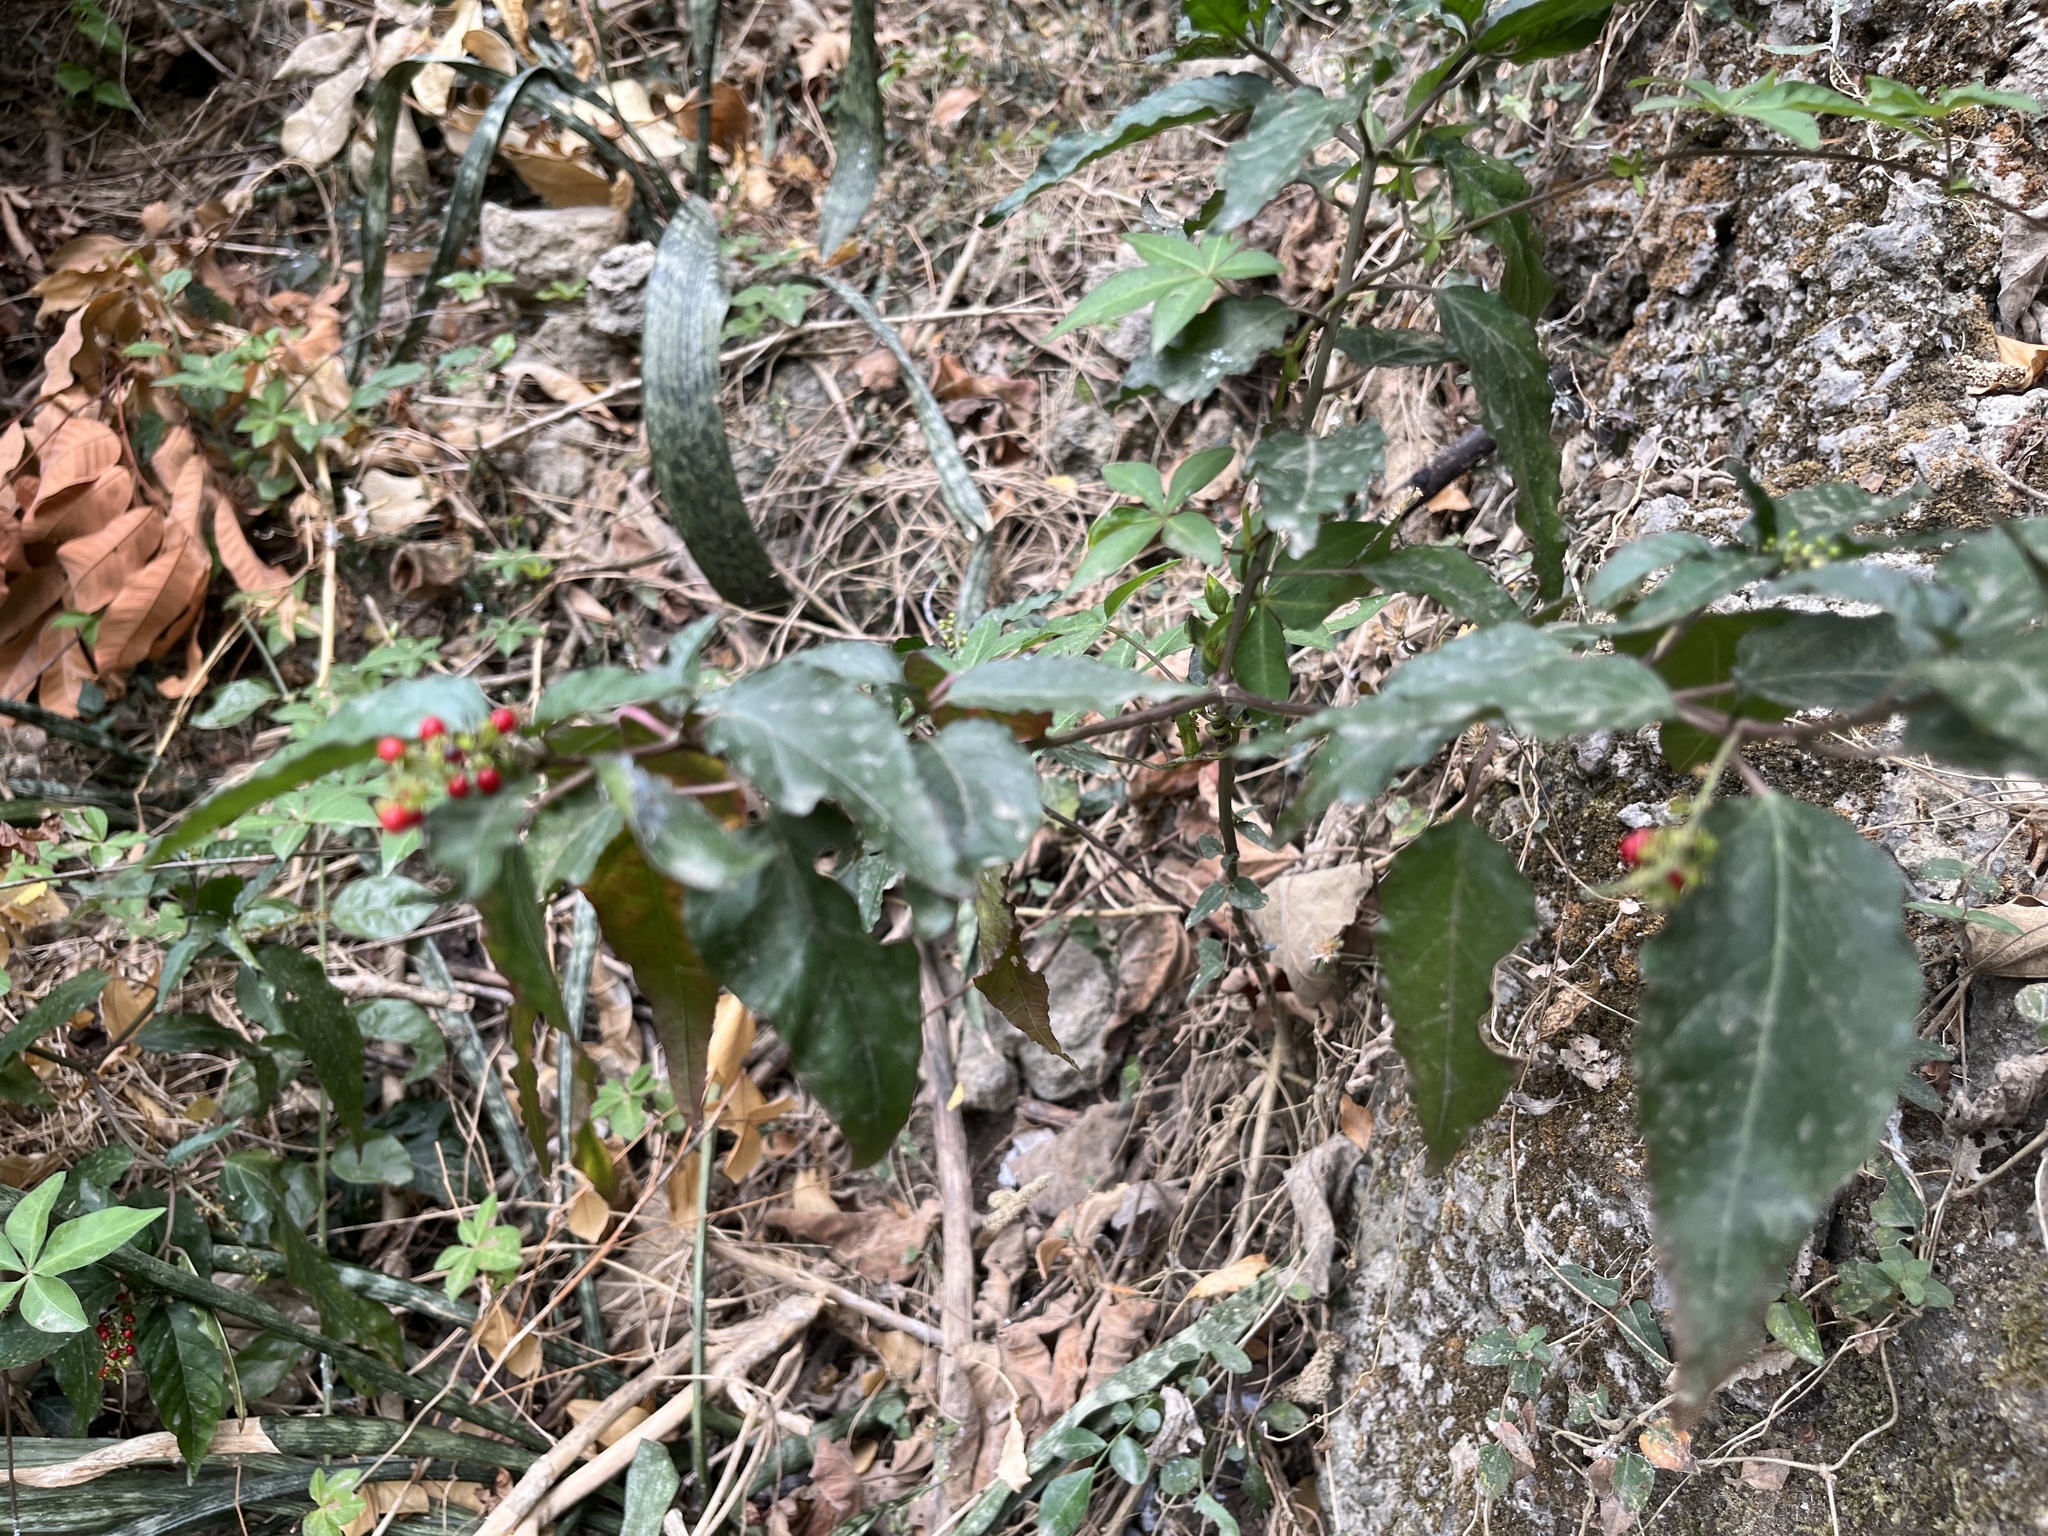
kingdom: Plantae
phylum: Tracheophyta
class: Magnoliopsida
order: Caryophyllales
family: Phytolaccaceae
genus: Rivina
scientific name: Rivina humilis
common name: Rougeplant
